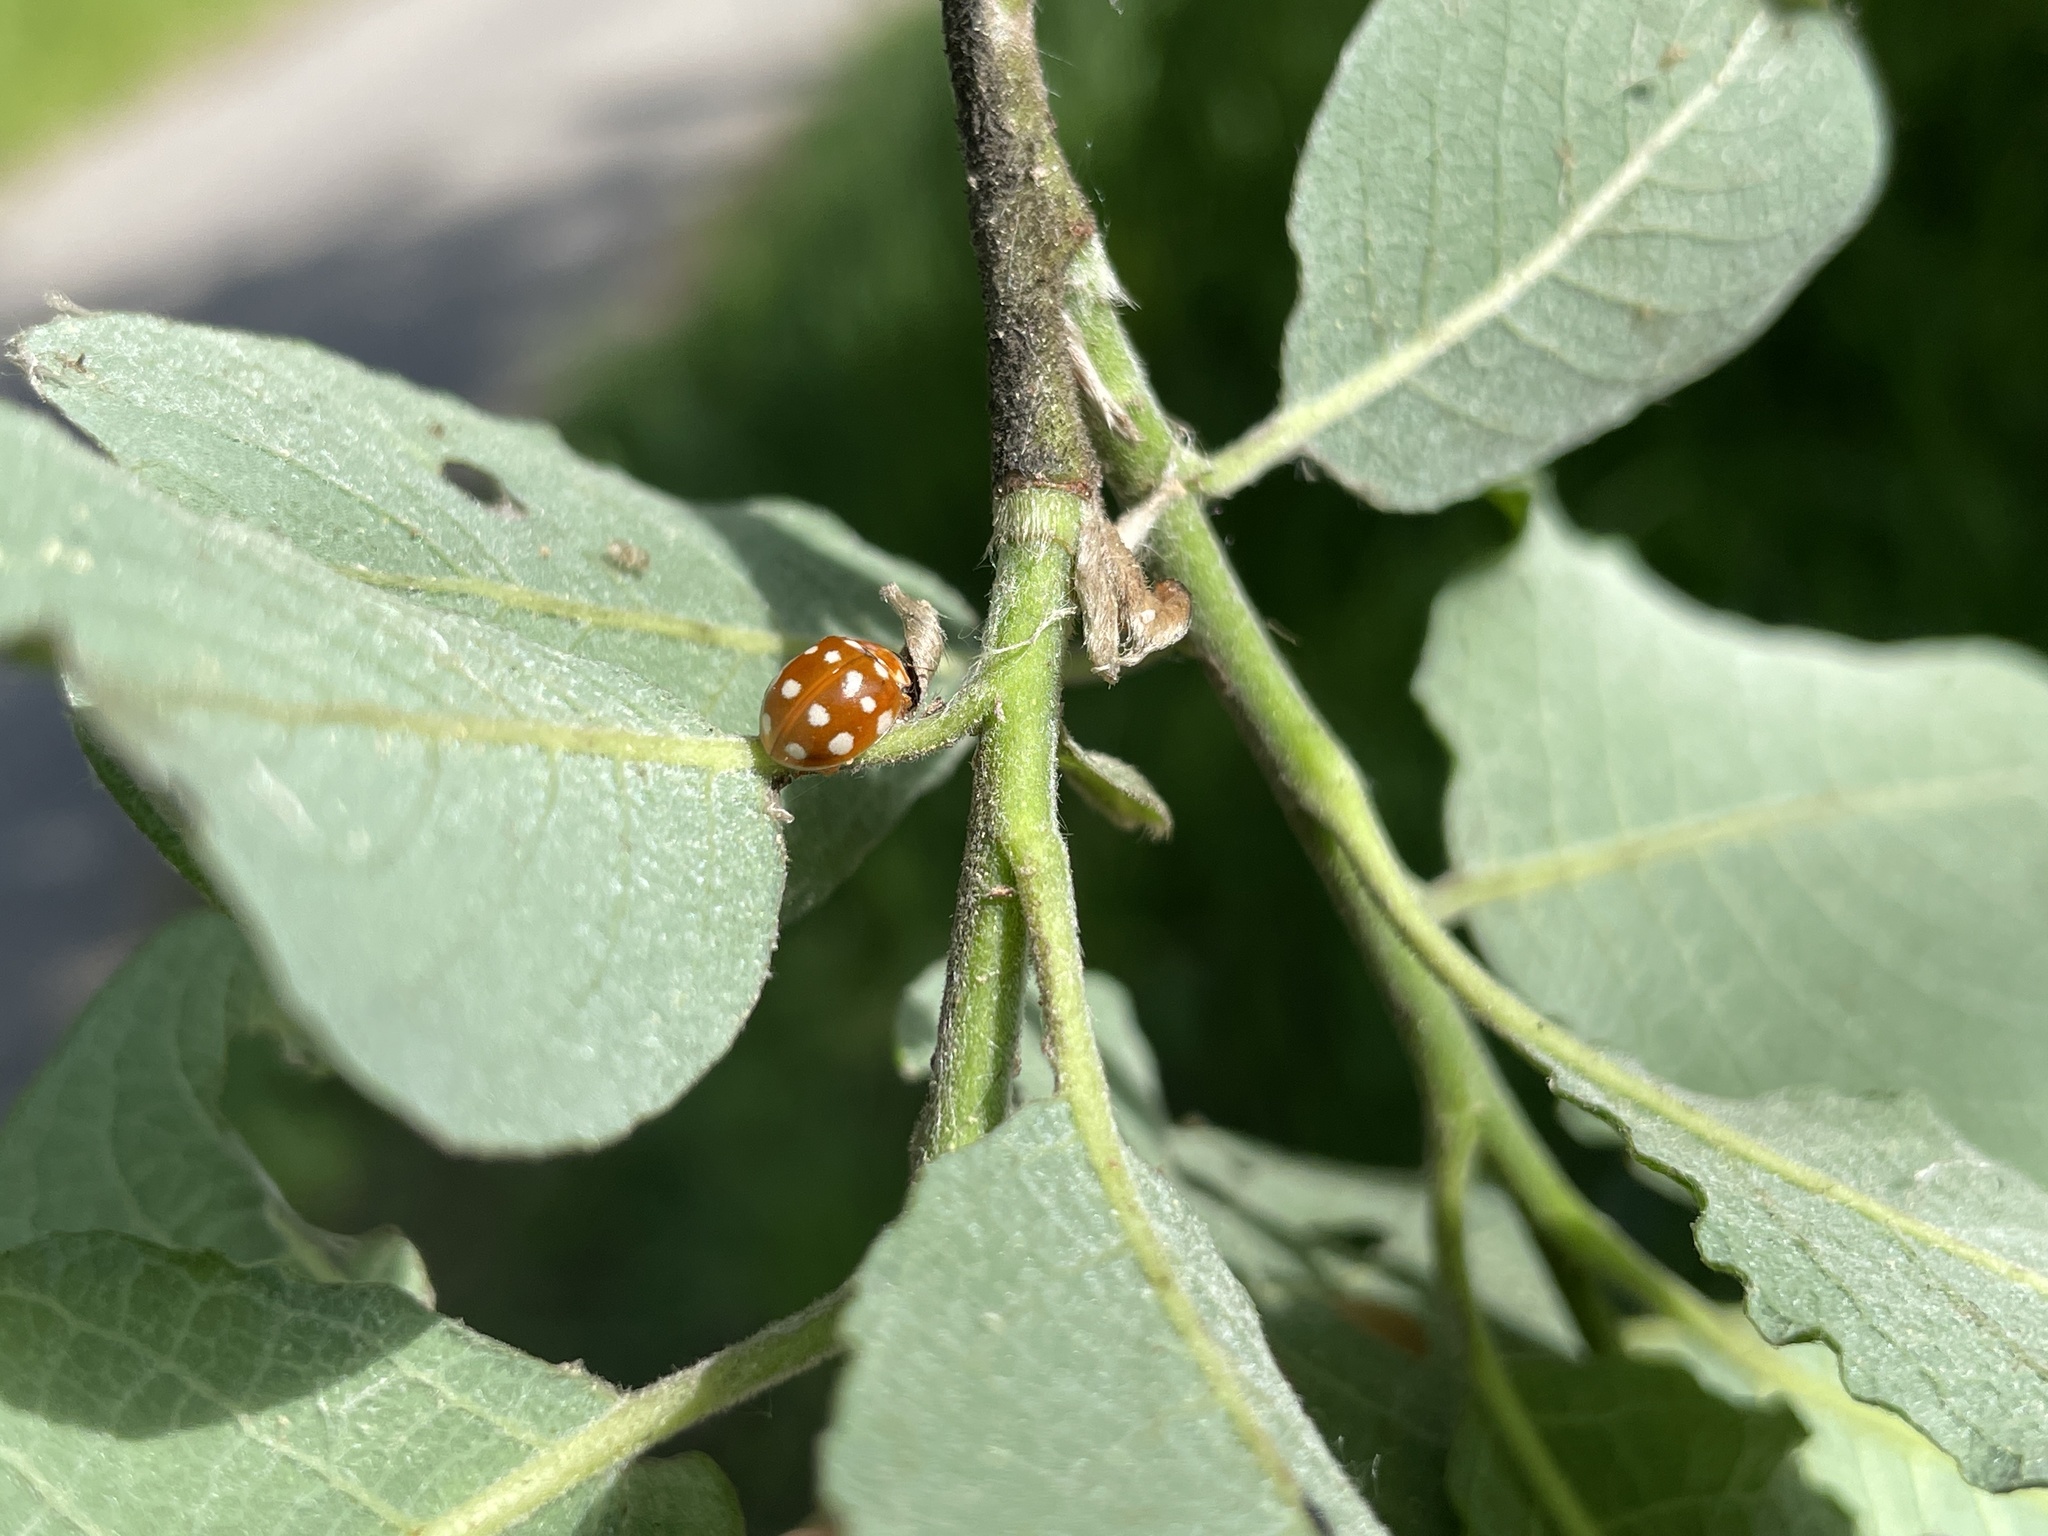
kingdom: Animalia
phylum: Arthropoda
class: Insecta
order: Coleoptera
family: Coccinellidae
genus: Calvia
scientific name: Calvia quatuordecimguttata
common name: Cream-spot ladybird
